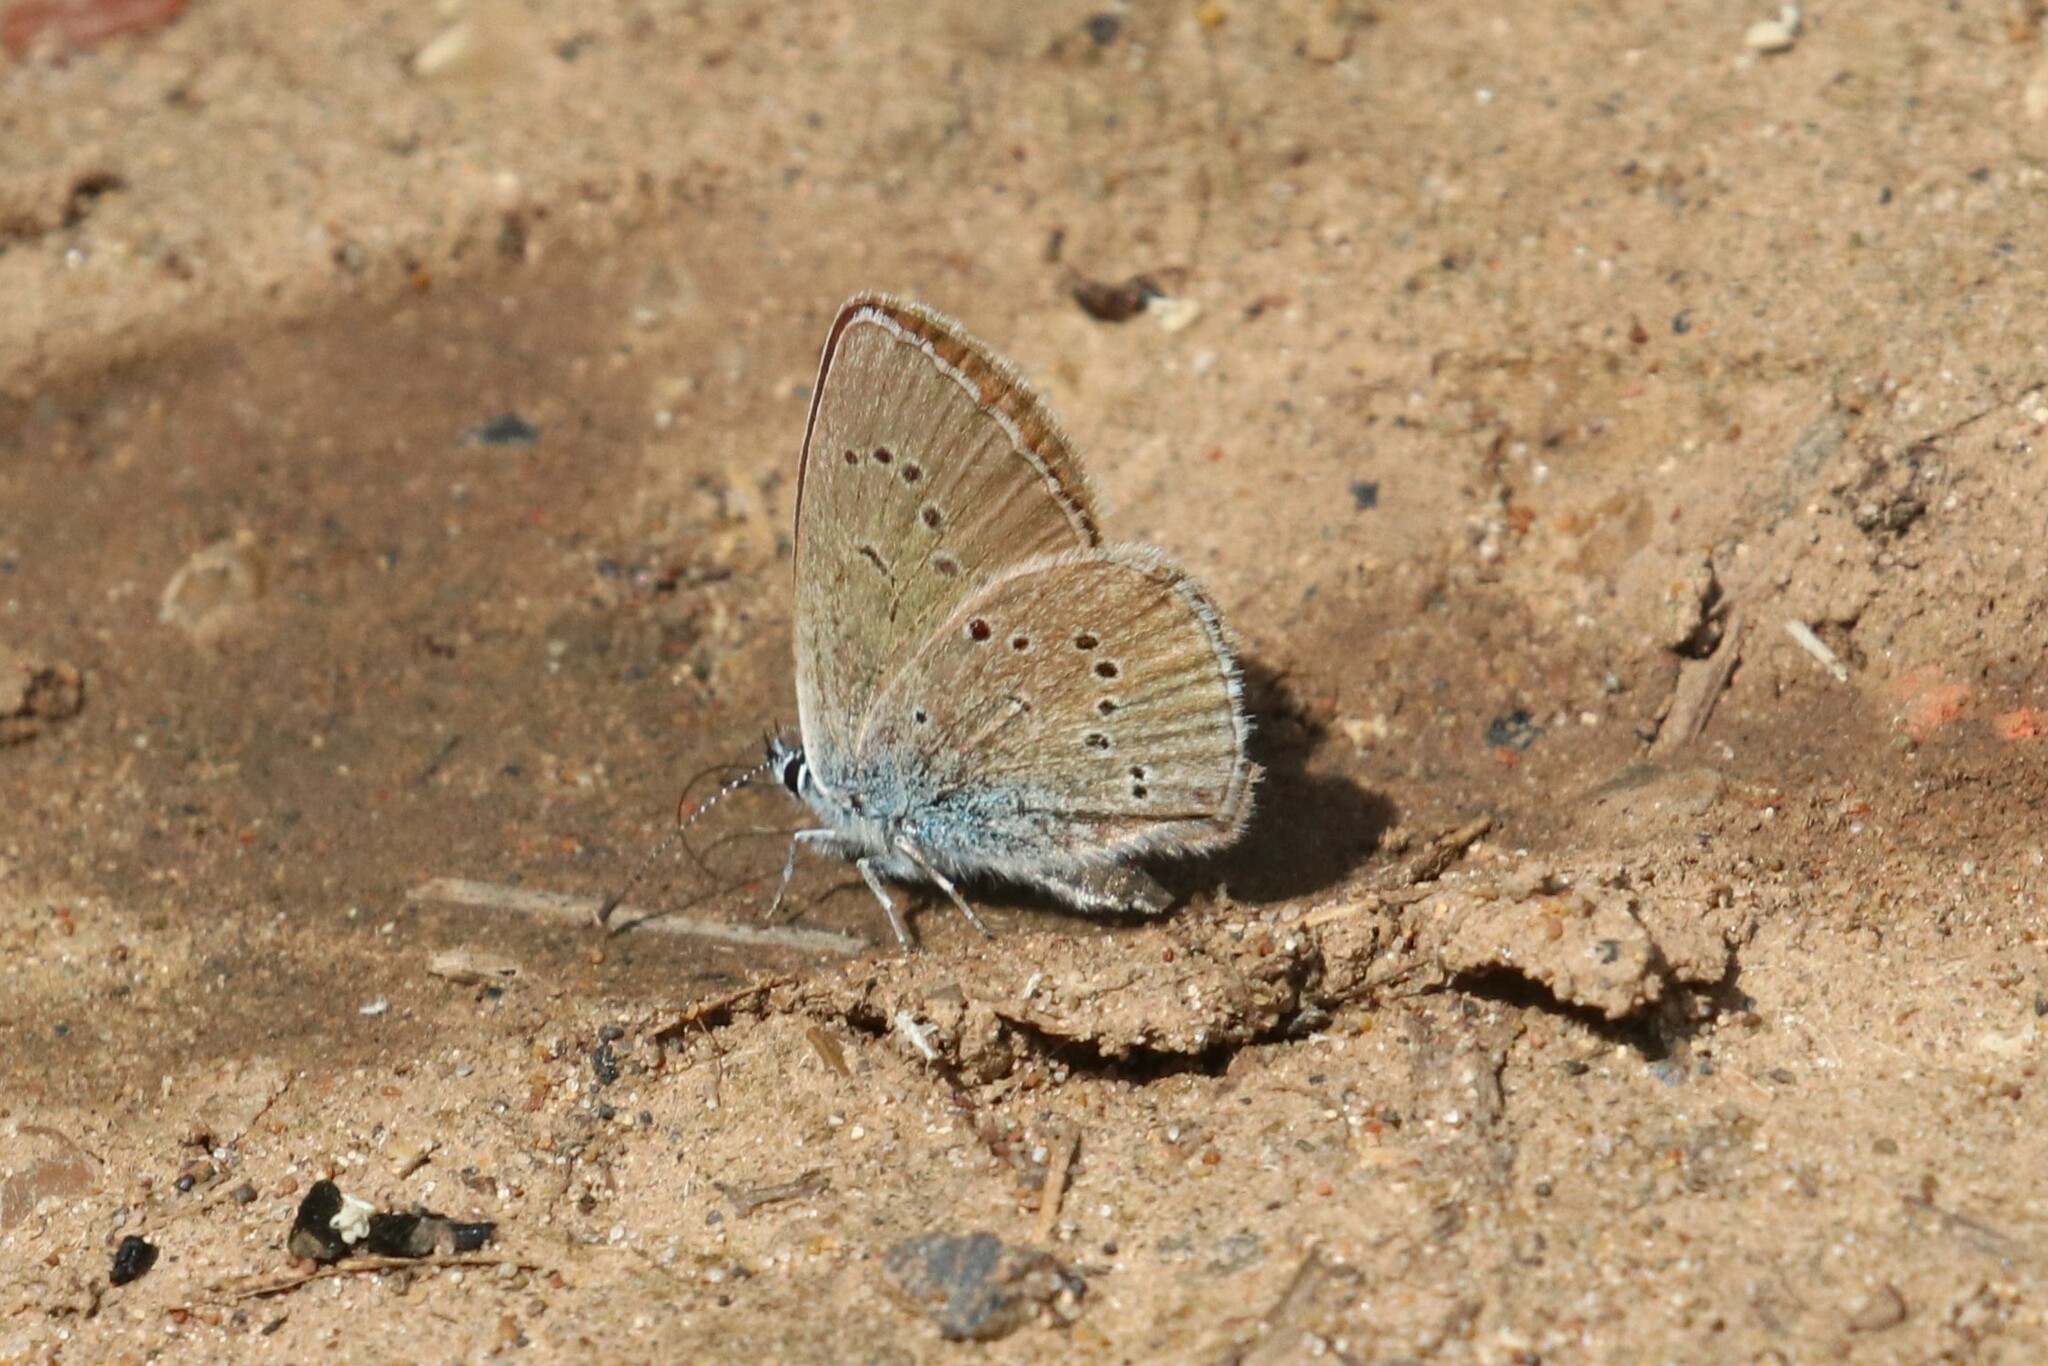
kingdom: Animalia
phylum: Arthropoda
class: Insecta
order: Lepidoptera
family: Lycaenidae
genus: Cyaniris
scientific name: Cyaniris semiargus
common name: Mazarine blue
